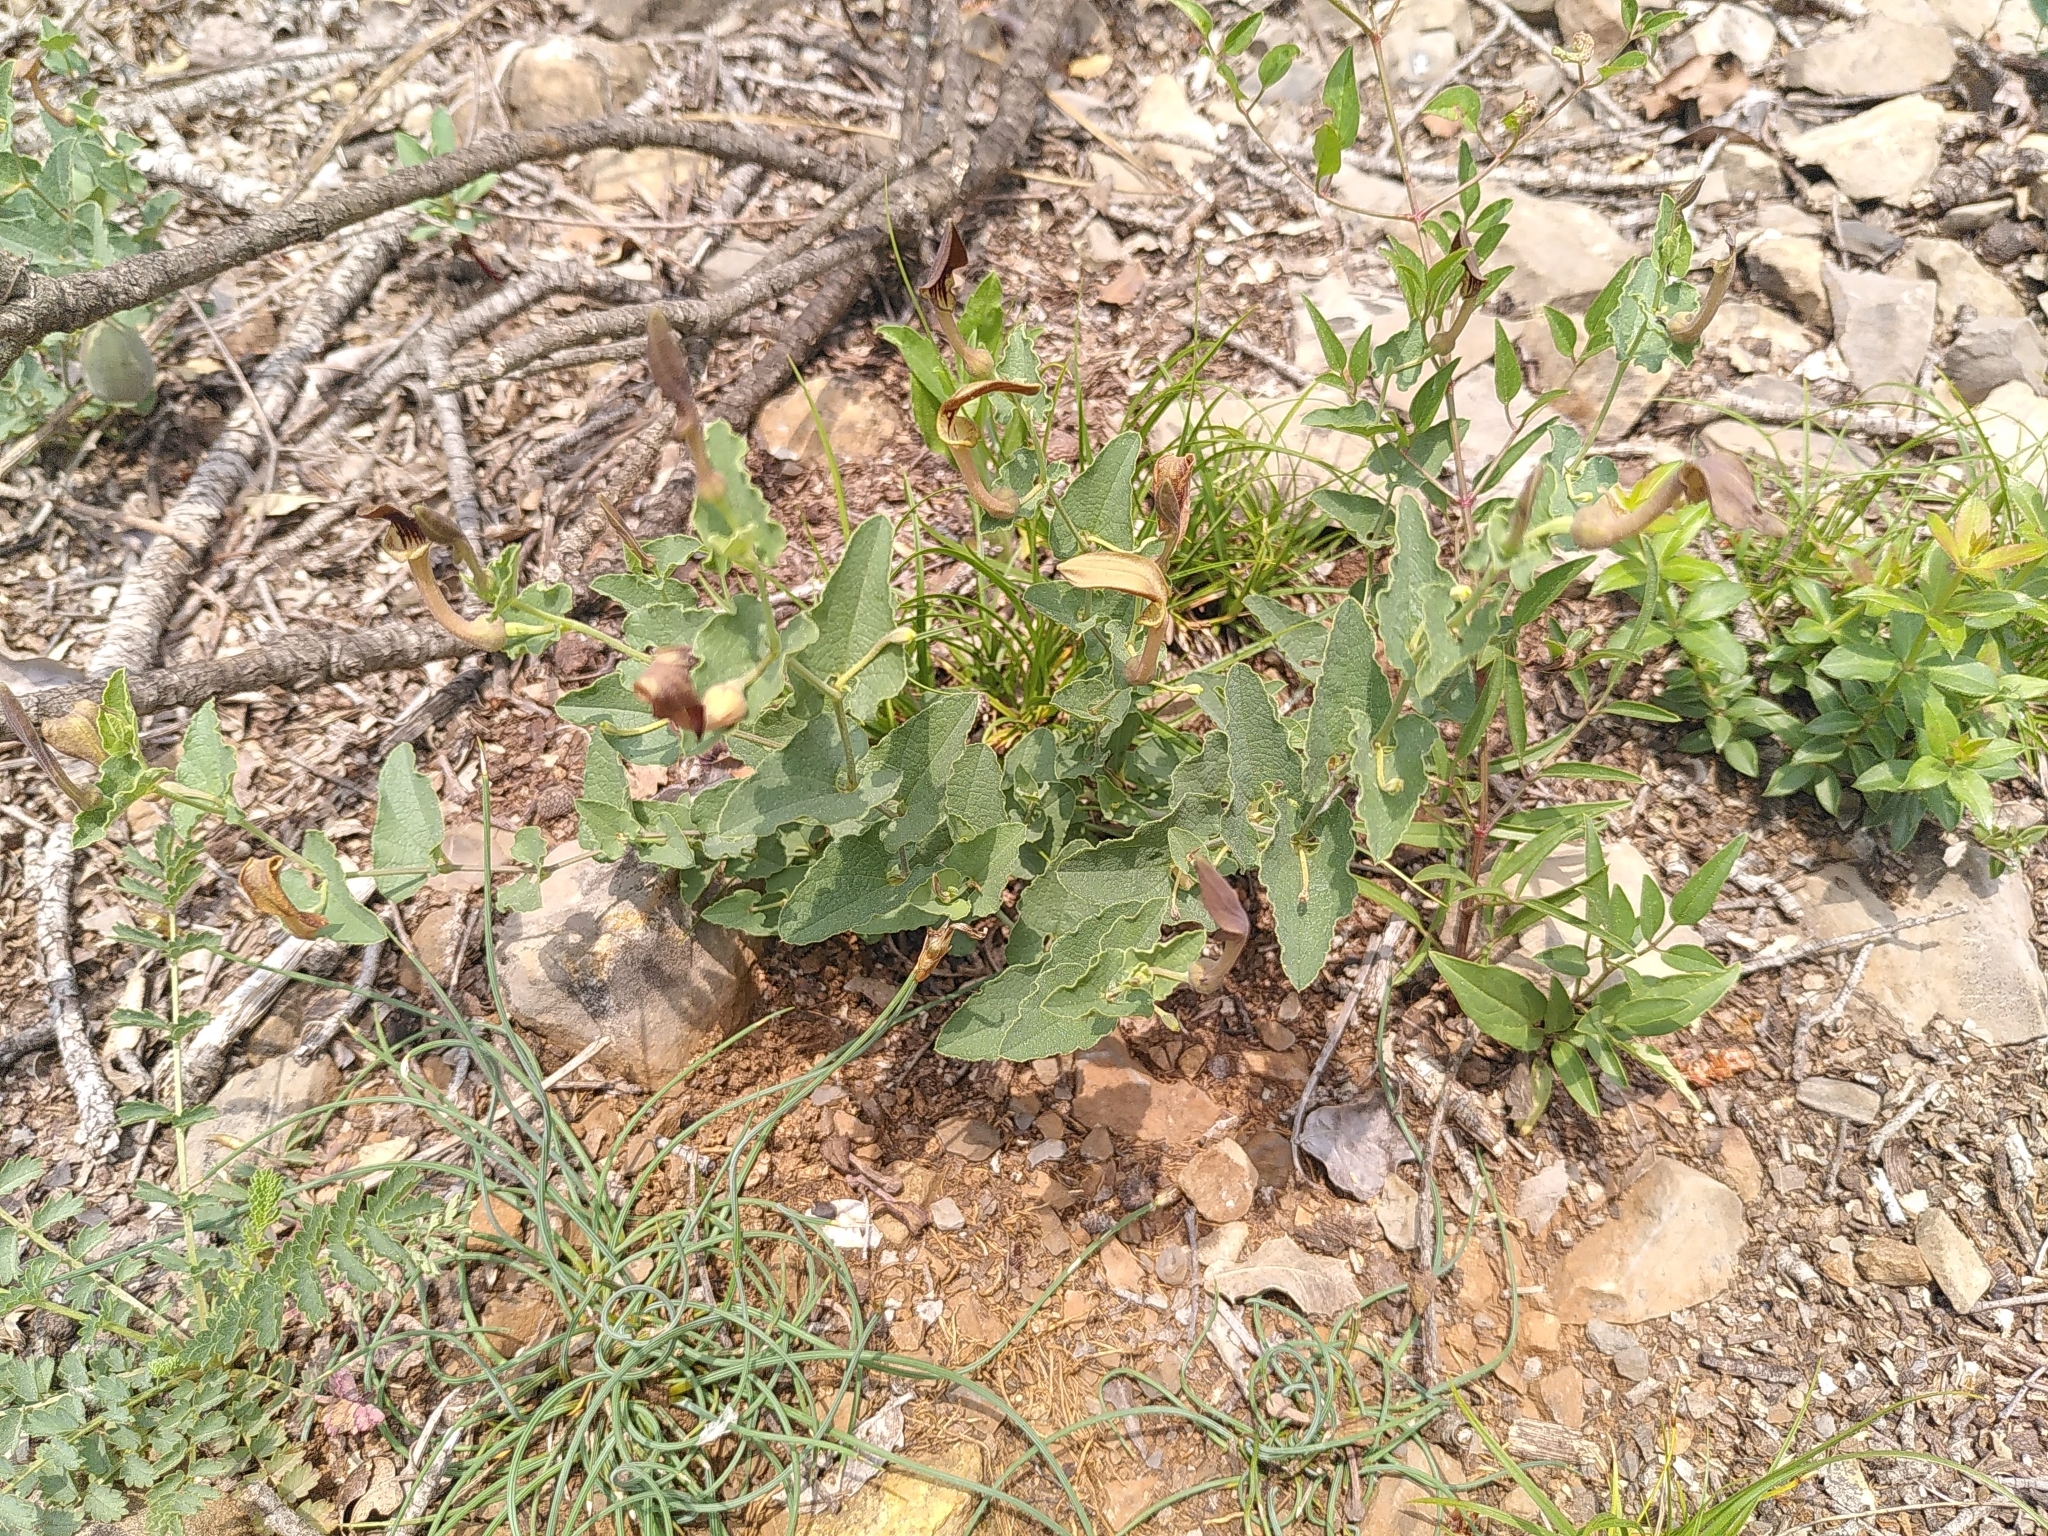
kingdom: Plantae
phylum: Tracheophyta
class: Magnoliopsida
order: Piperales
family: Aristolochiaceae
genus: Aristolochia
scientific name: Aristolochia pistolochia
